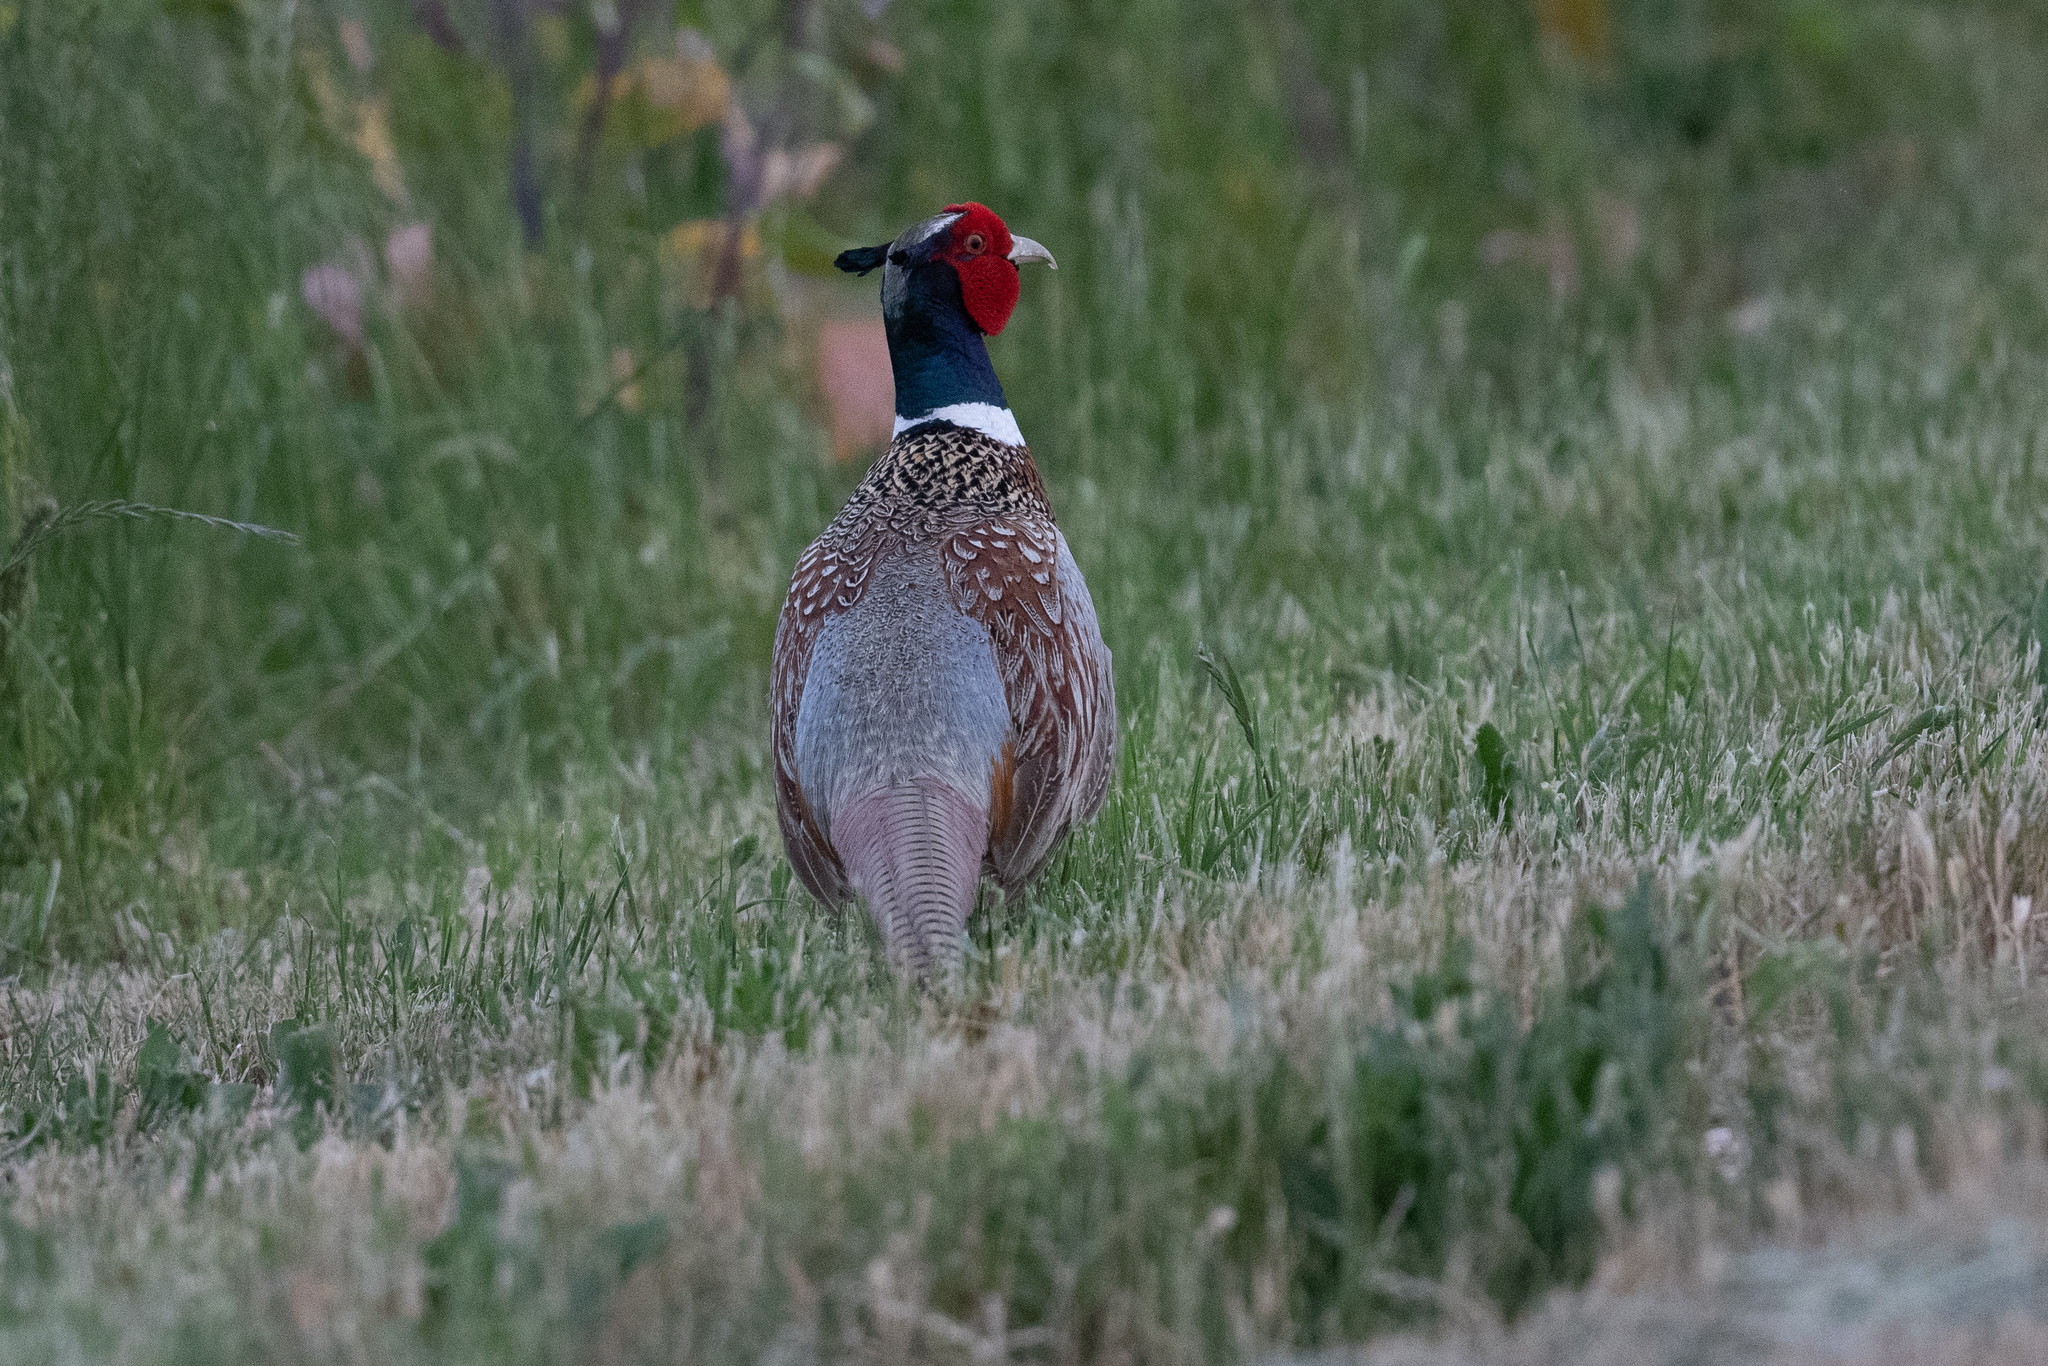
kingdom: Animalia
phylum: Chordata
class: Aves
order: Galliformes
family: Phasianidae
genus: Phasianus
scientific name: Phasianus colchicus
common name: Common pheasant
